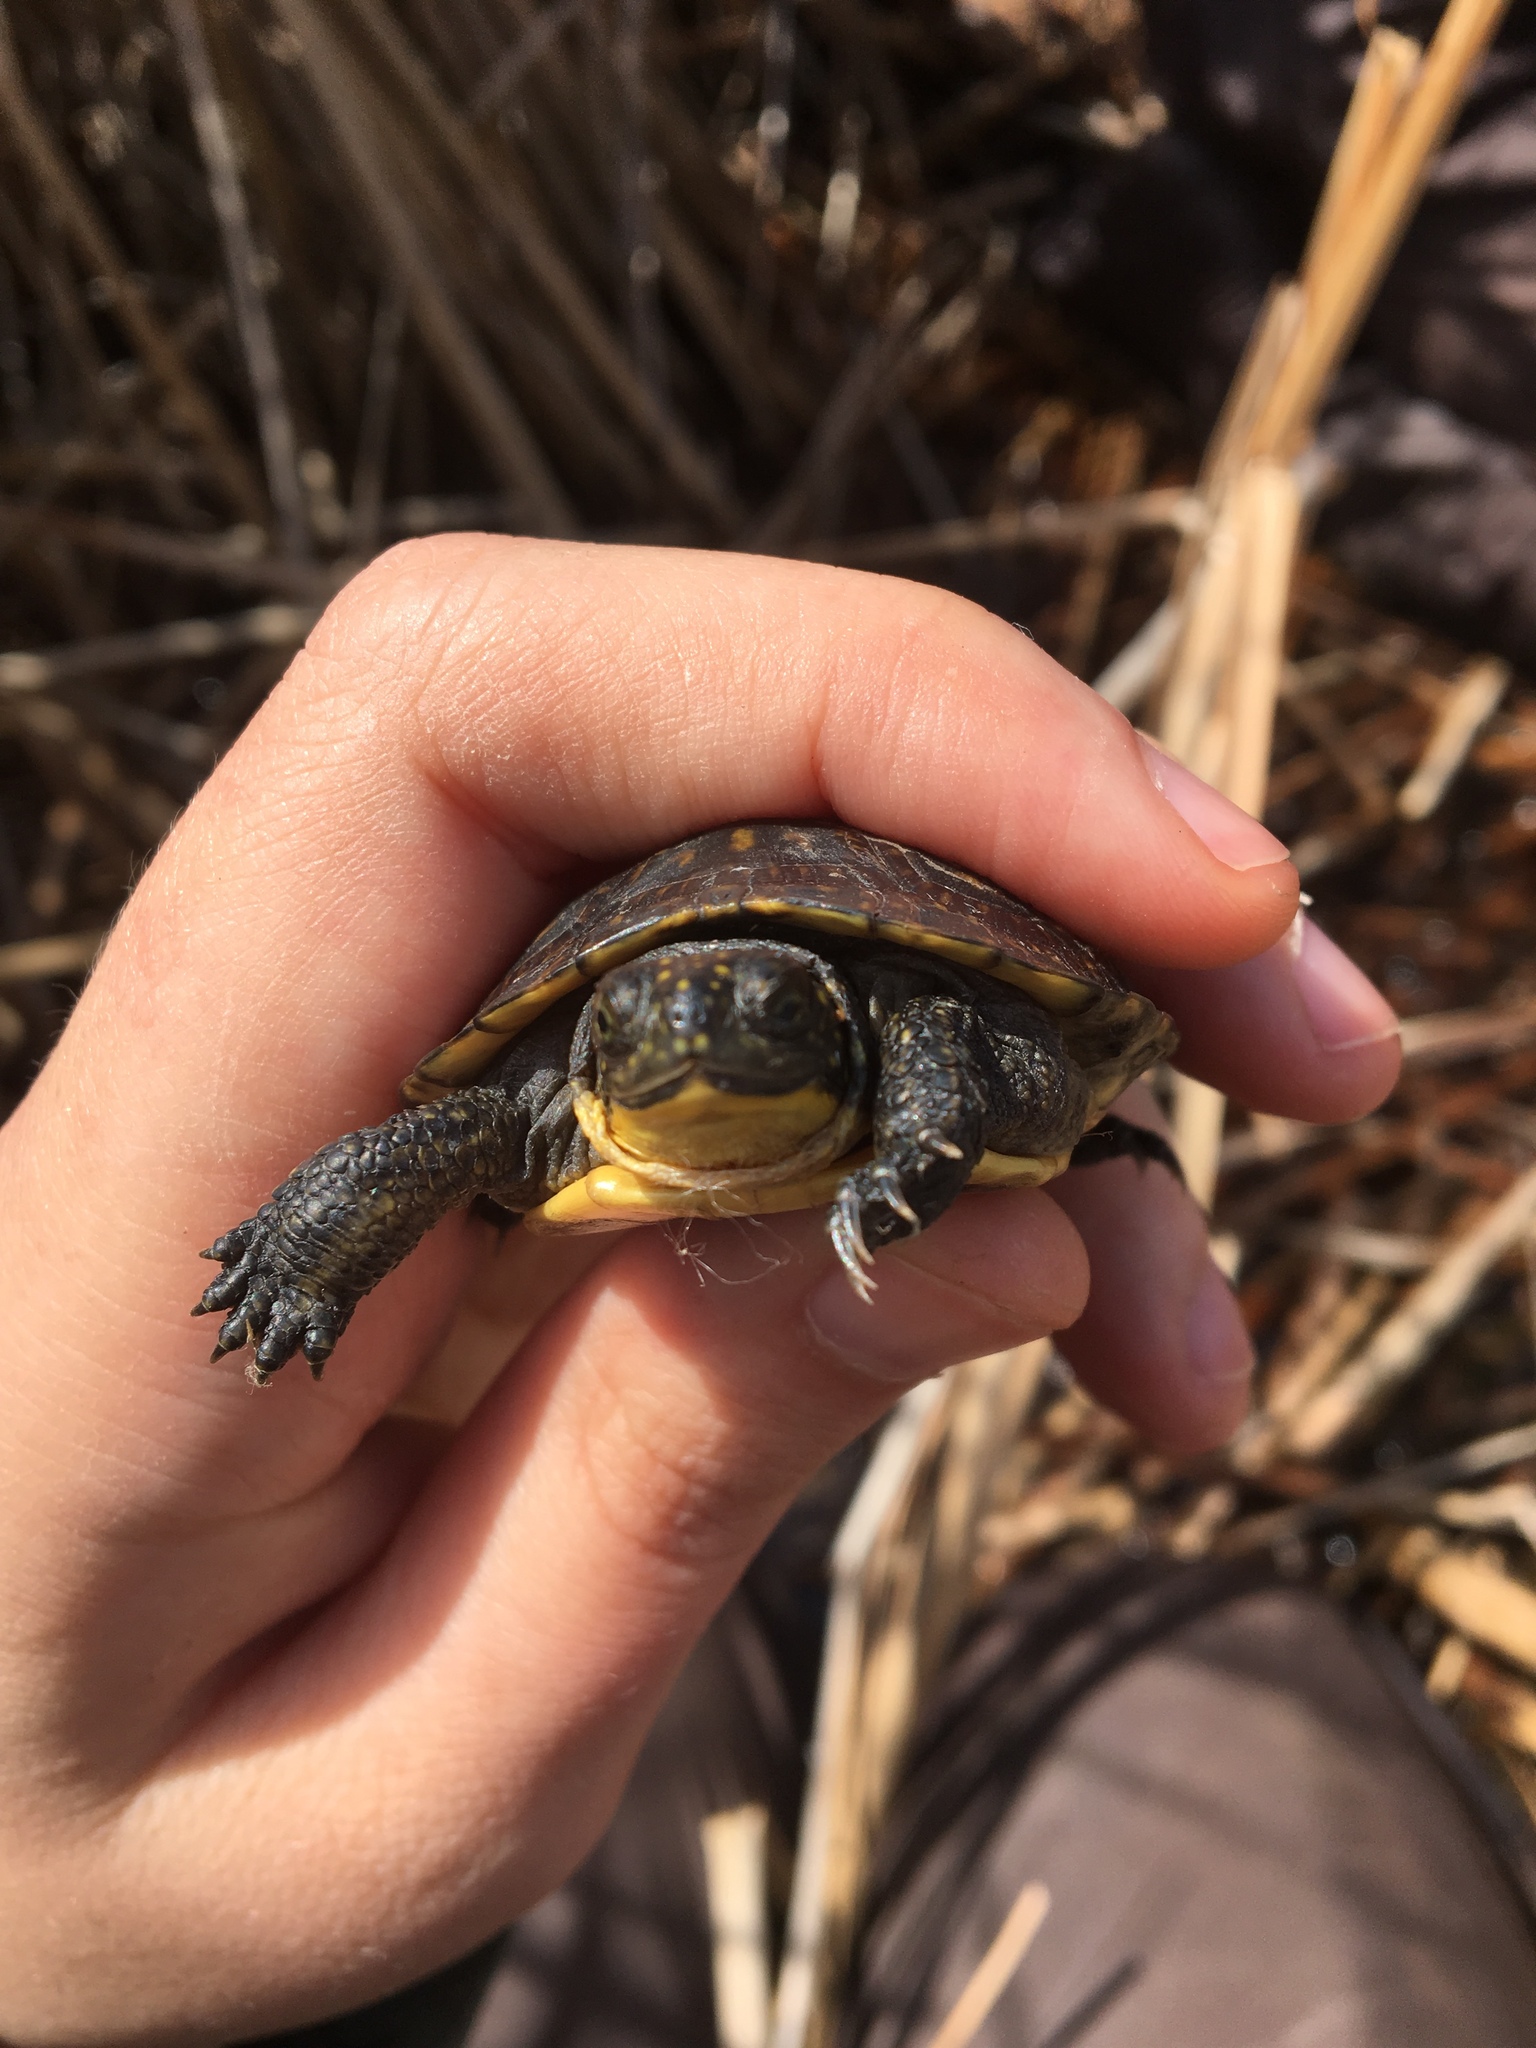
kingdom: Animalia
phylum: Chordata
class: Testudines
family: Emydidae
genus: Emys
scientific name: Emys blandingii
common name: Blanding's turtle
